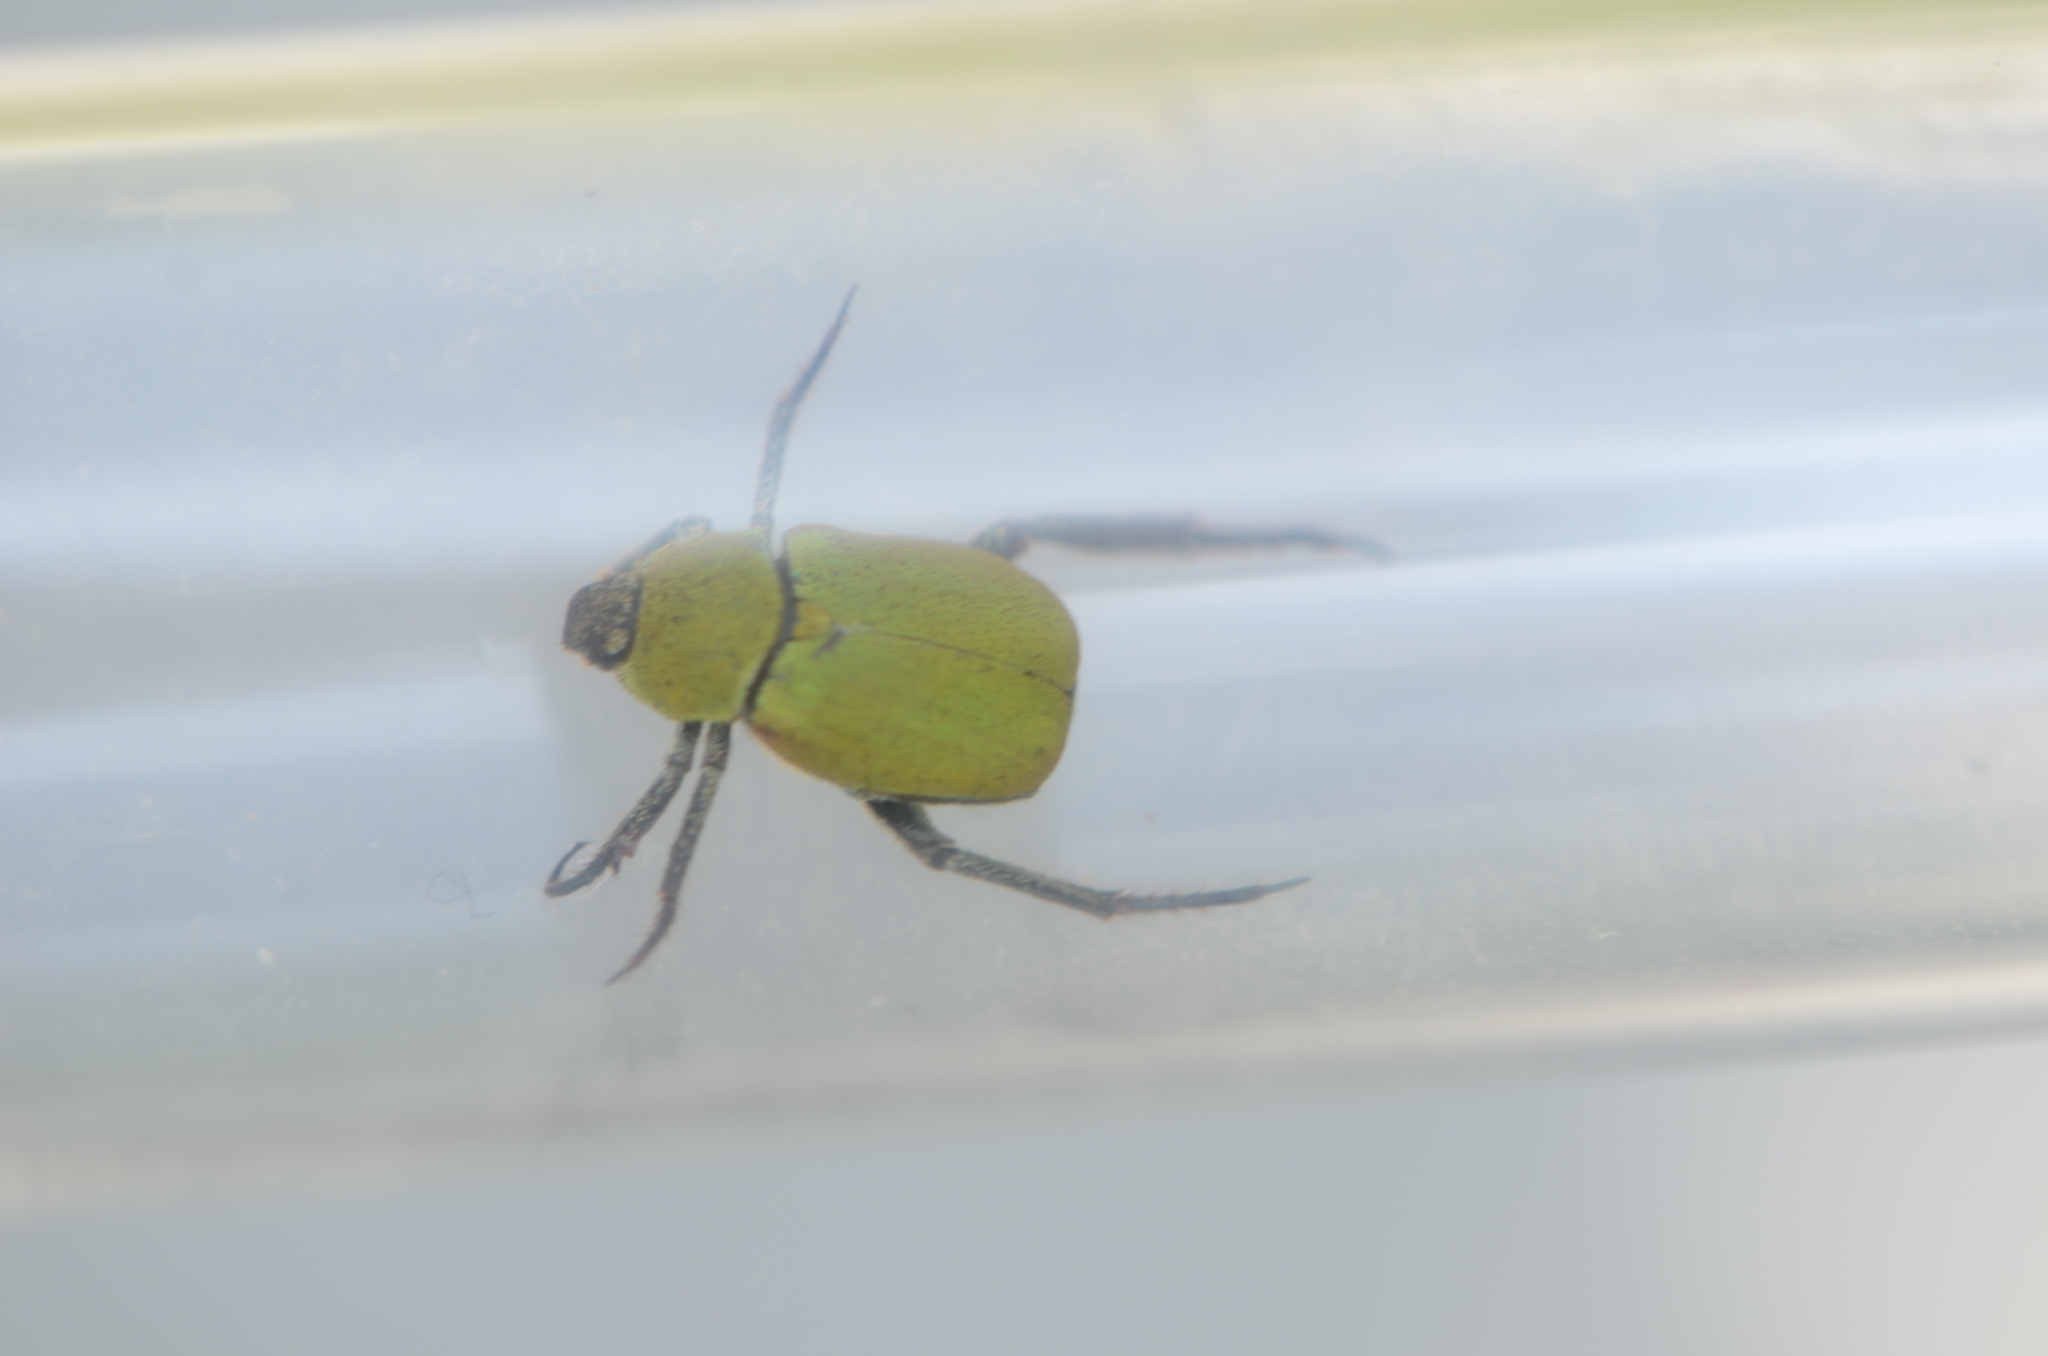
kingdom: Animalia
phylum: Arthropoda
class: Insecta
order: Coleoptera
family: Scarabaeidae
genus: Hoplia
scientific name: Hoplia argentea
